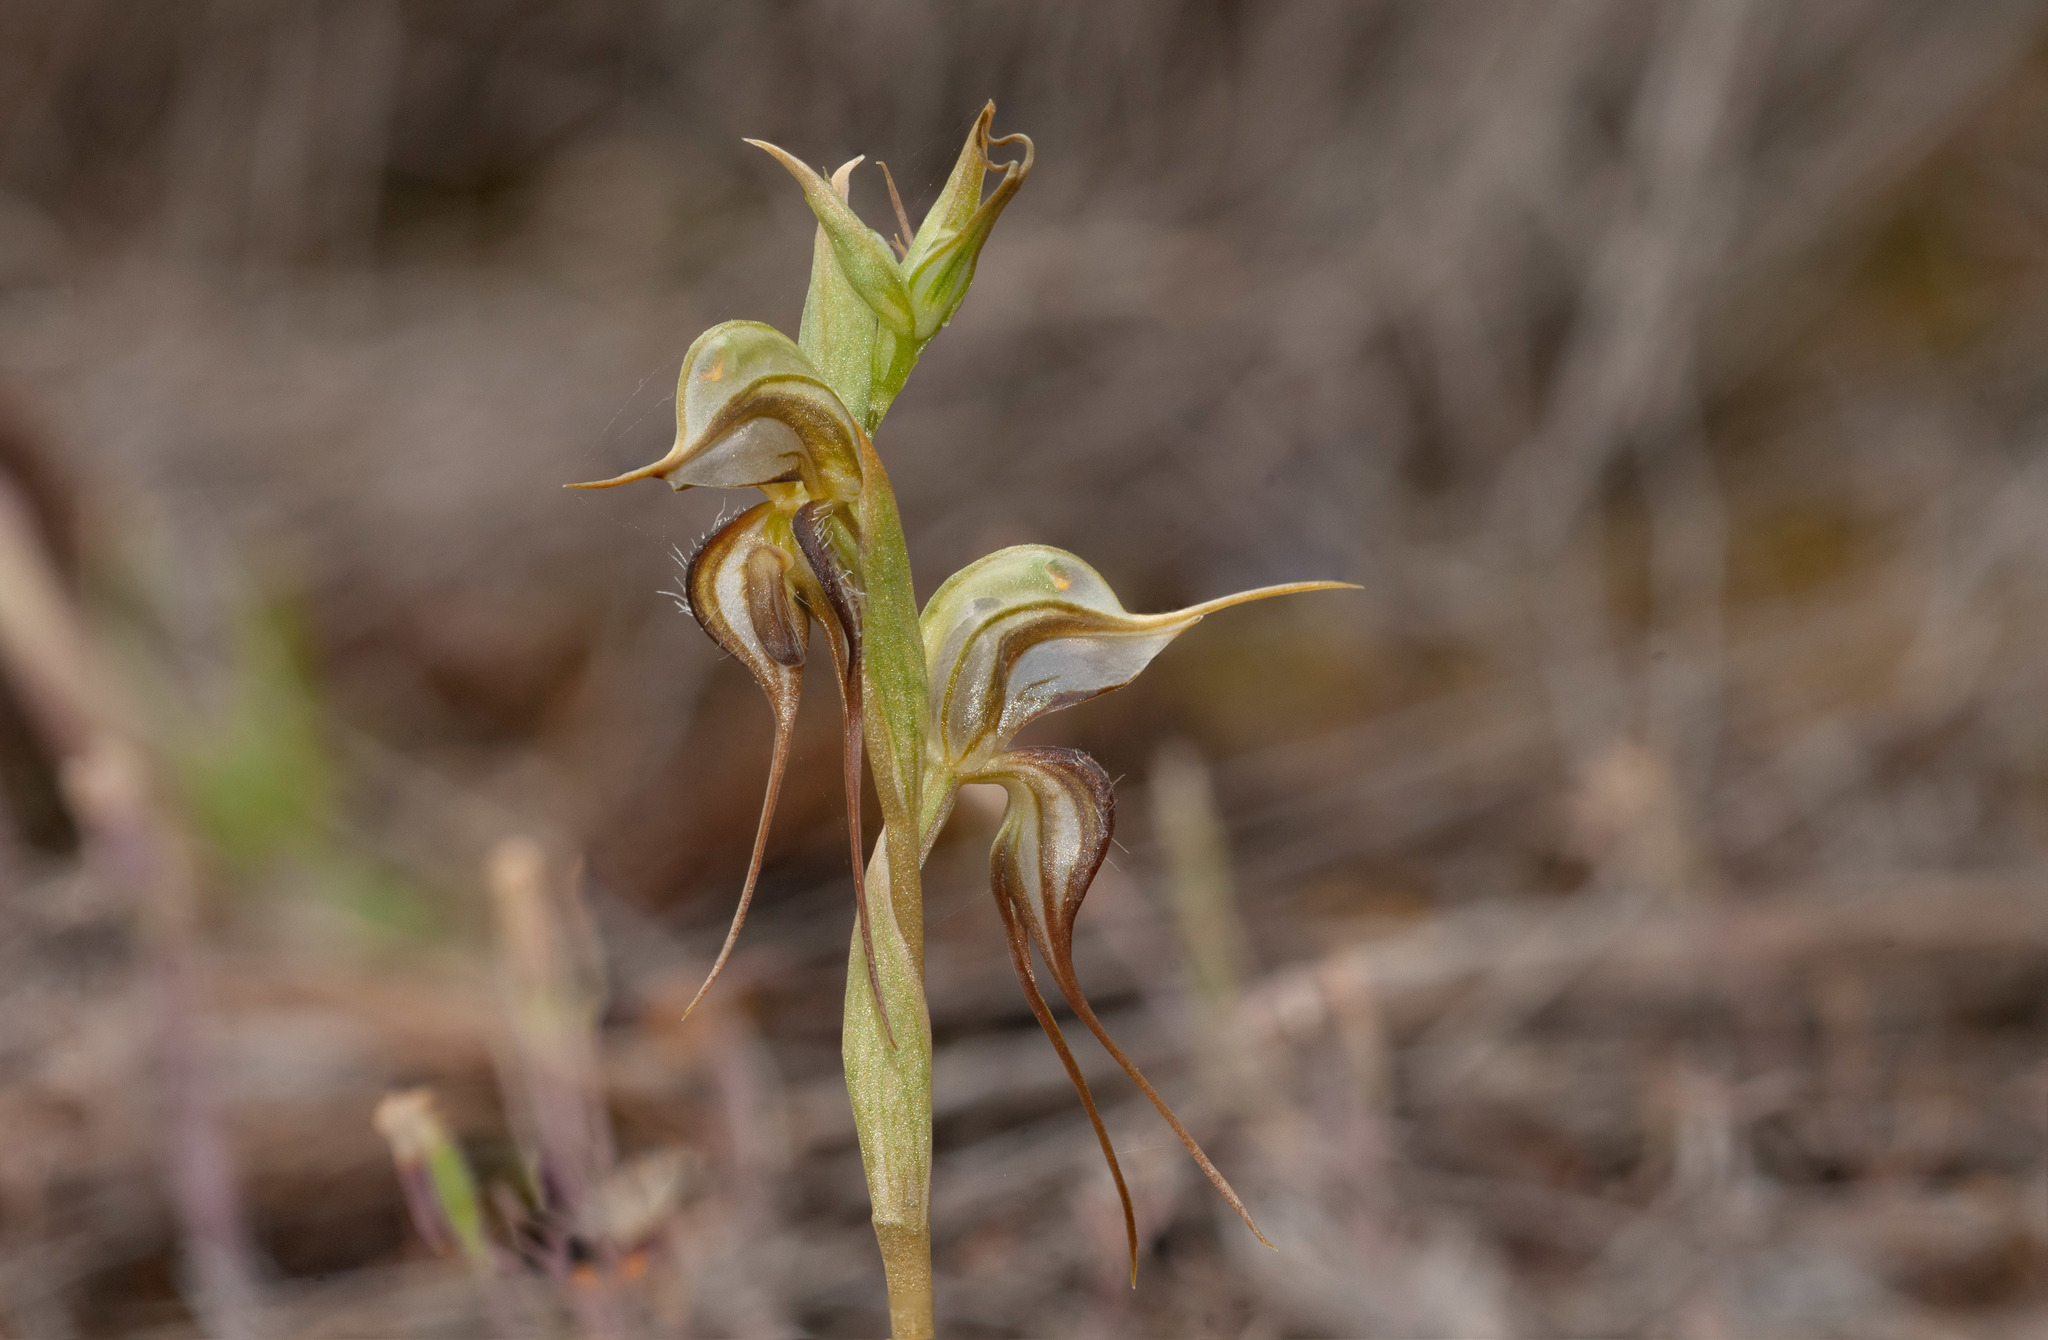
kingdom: Plantae
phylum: Tracheophyta
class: Liliopsida
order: Asparagales
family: Orchidaceae
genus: Pterostylis
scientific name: Pterostylis arenicola
